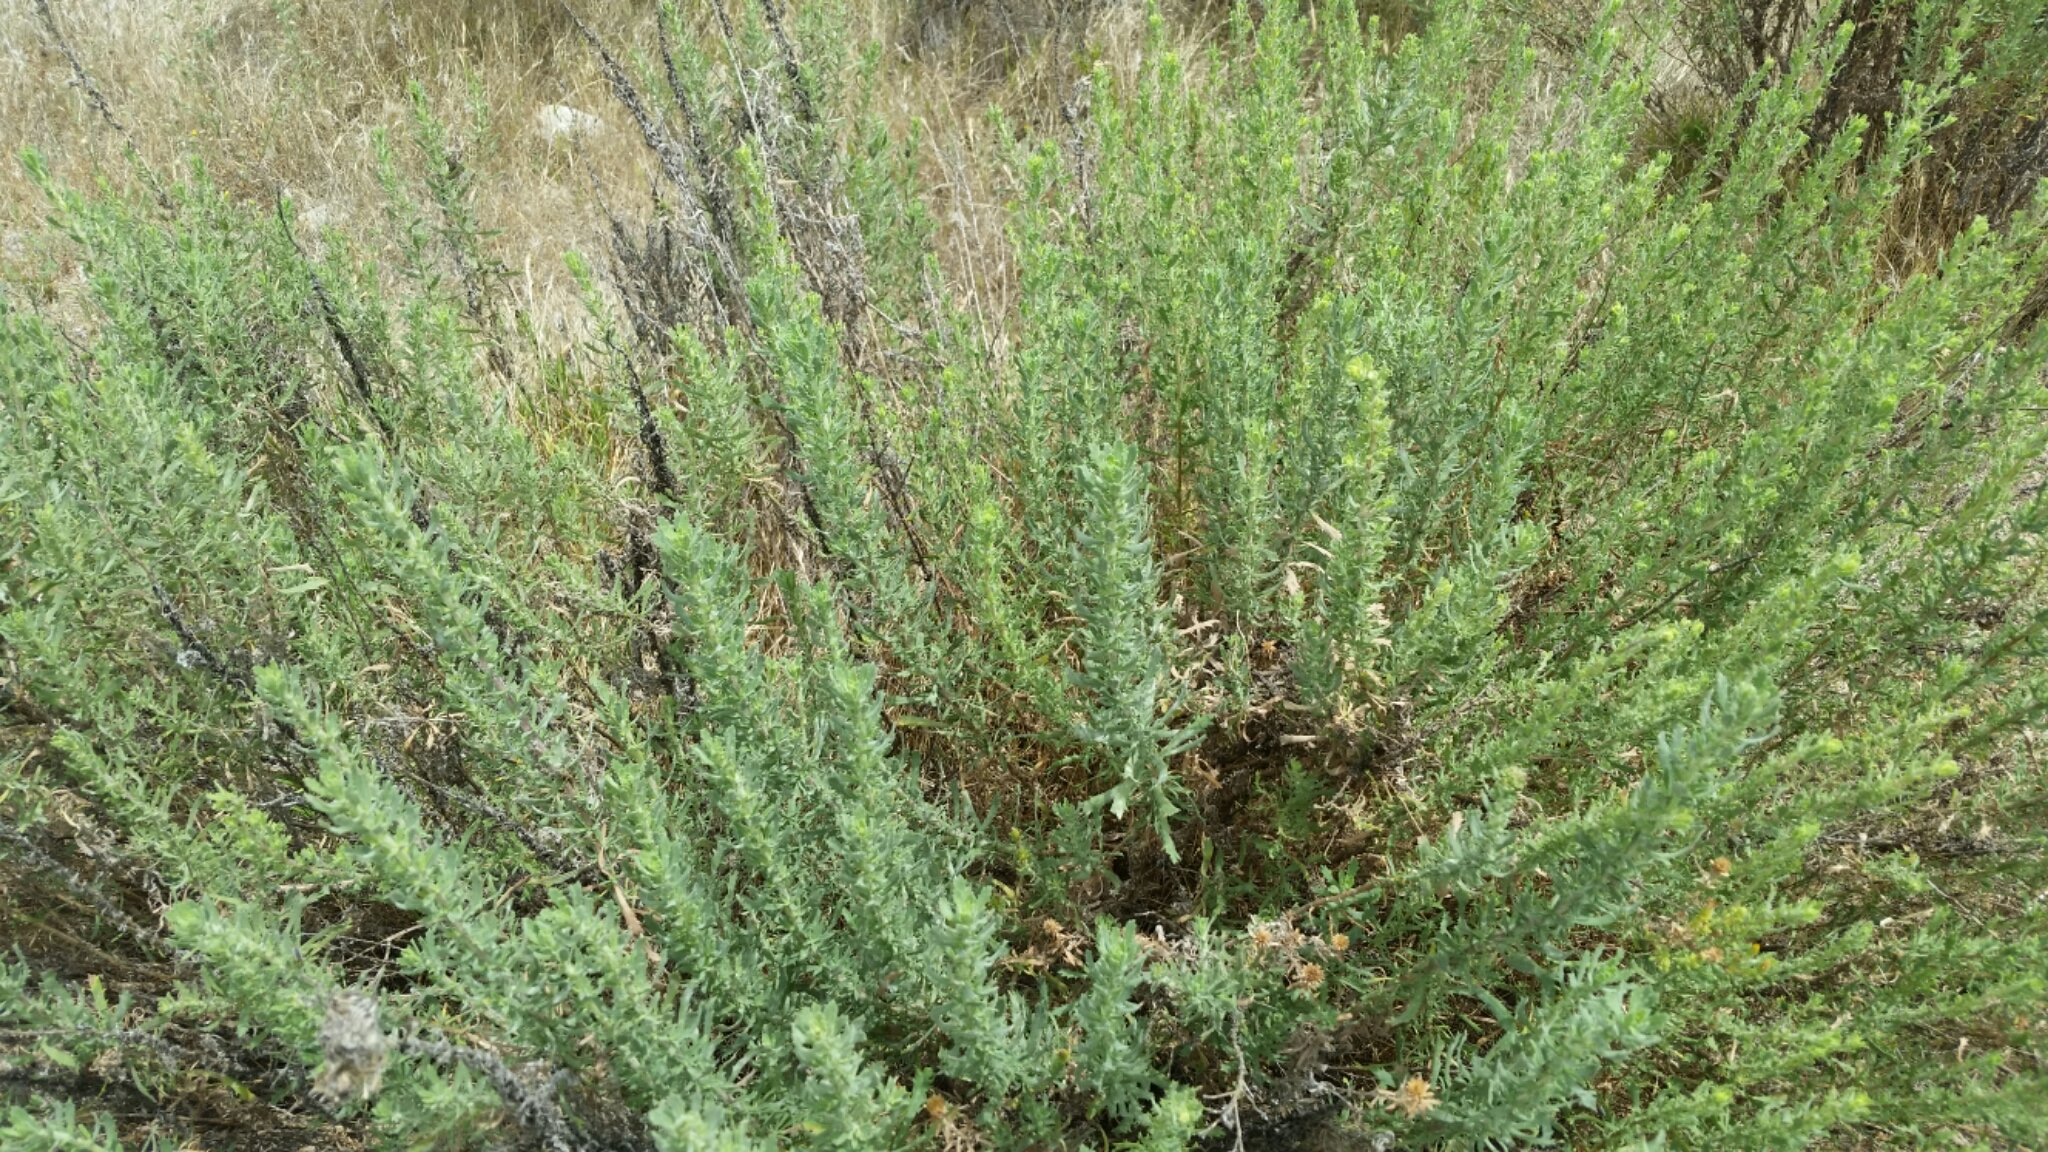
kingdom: Plantae
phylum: Tracheophyta
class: Magnoliopsida
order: Asterales
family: Asteraceae
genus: Isocoma
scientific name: Isocoma menziesii
